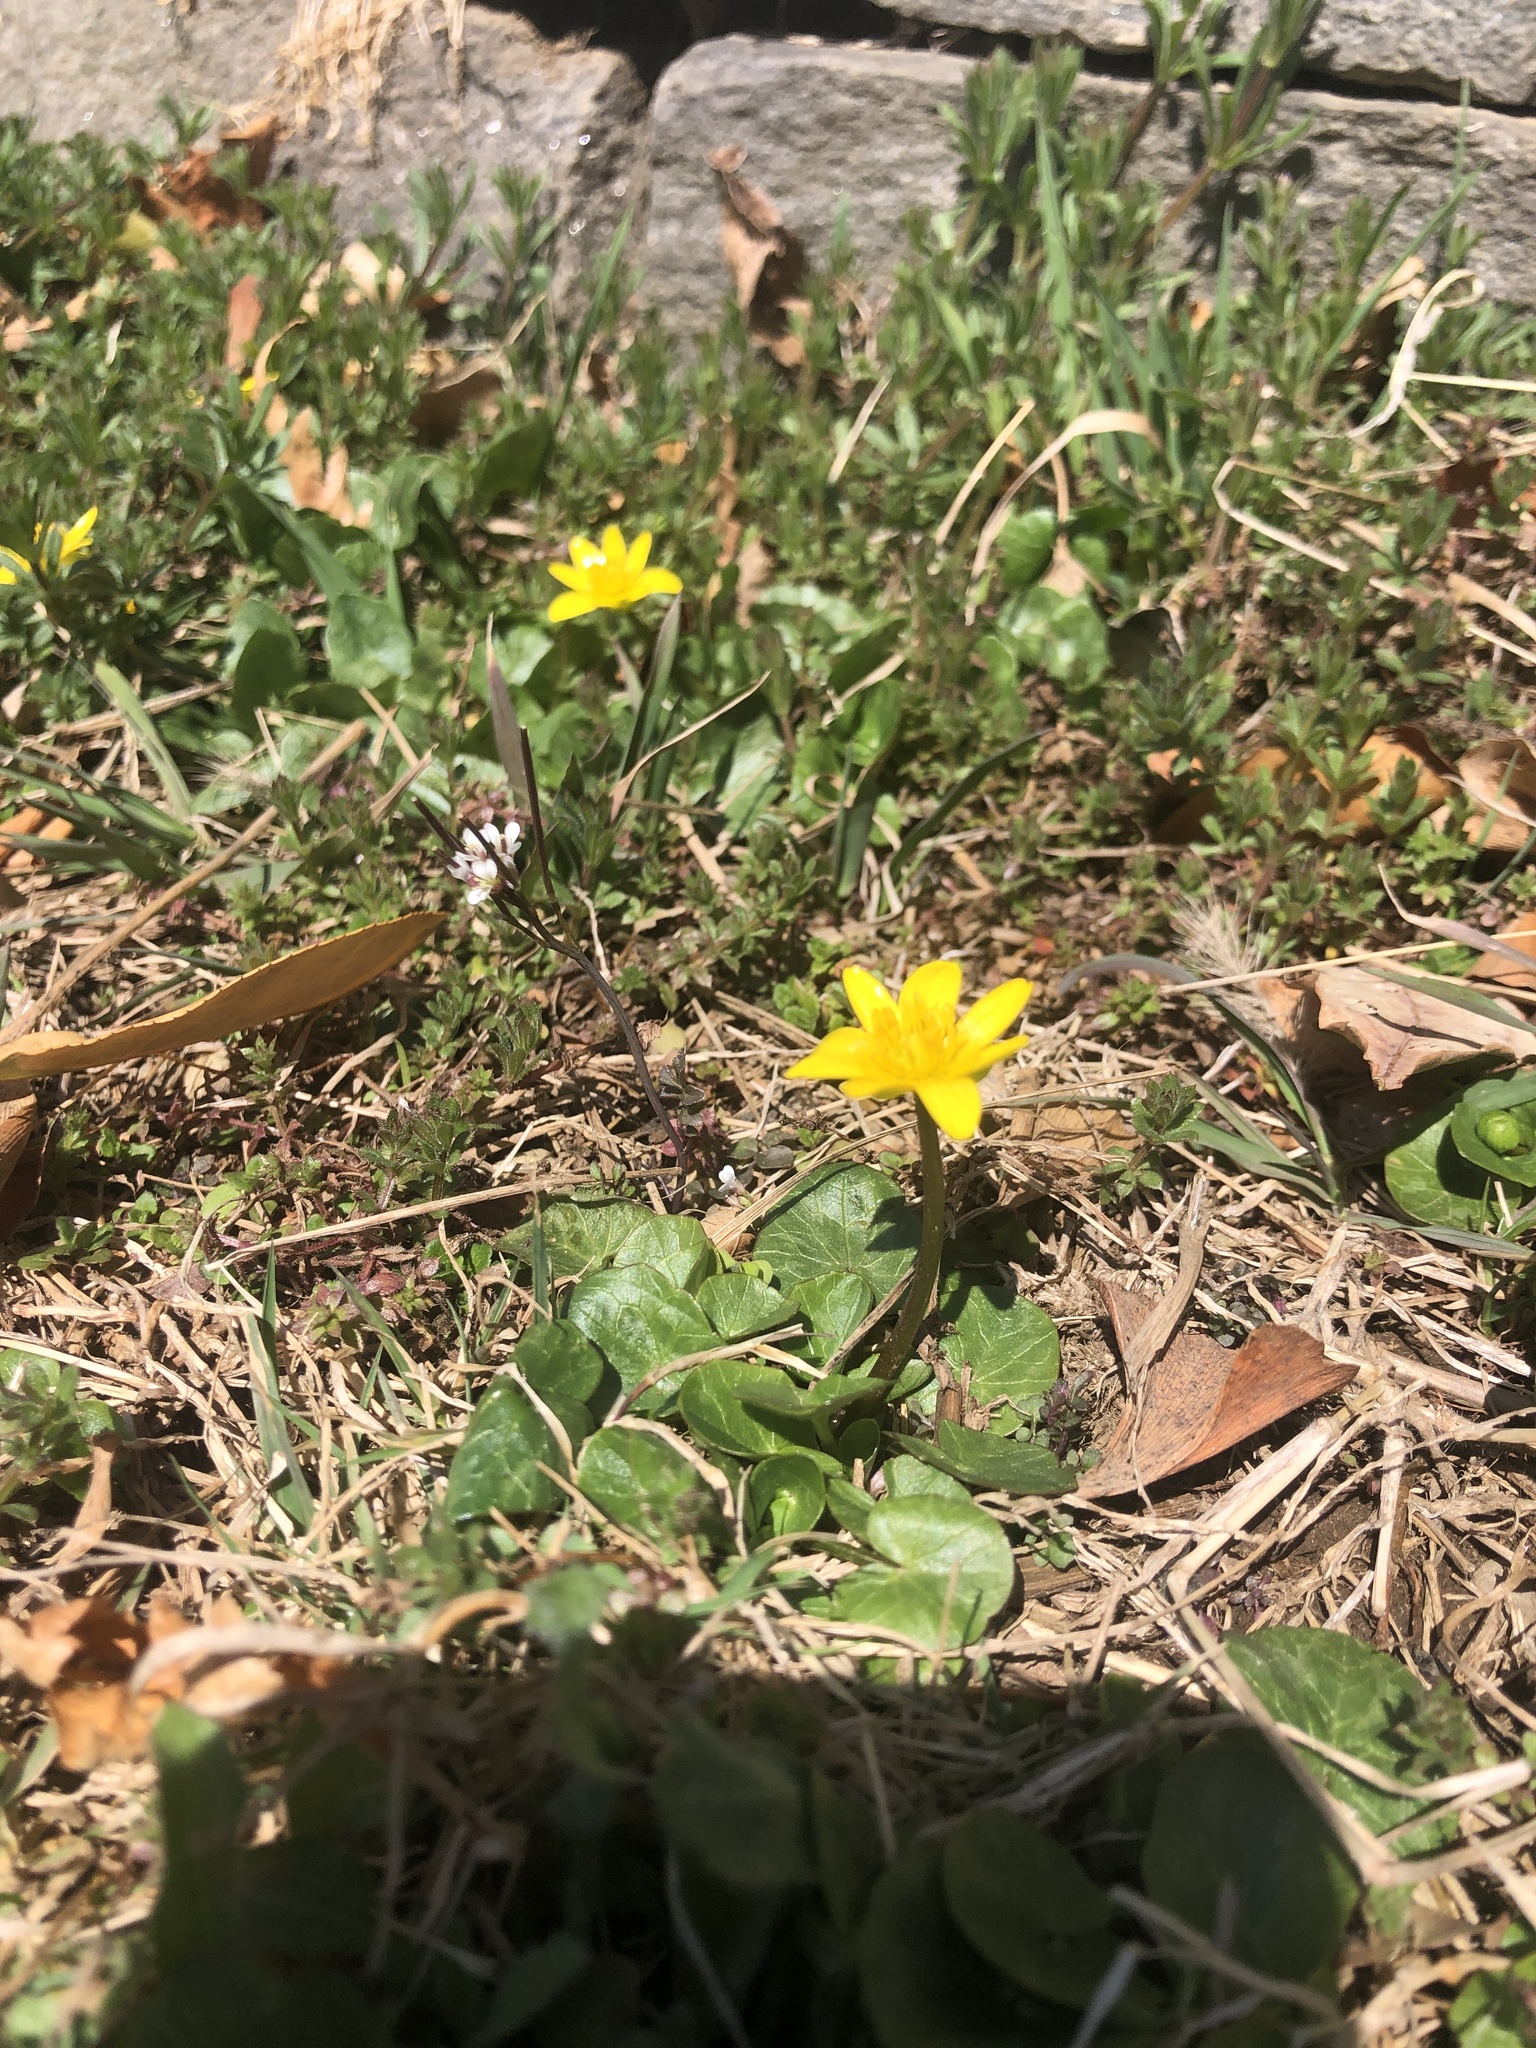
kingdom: Plantae
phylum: Tracheophyta
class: Magnoliopsida
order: Ranunculales
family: Ranunculaceae
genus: Ficaria
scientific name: Ficaria verna
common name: Lesser celandine
